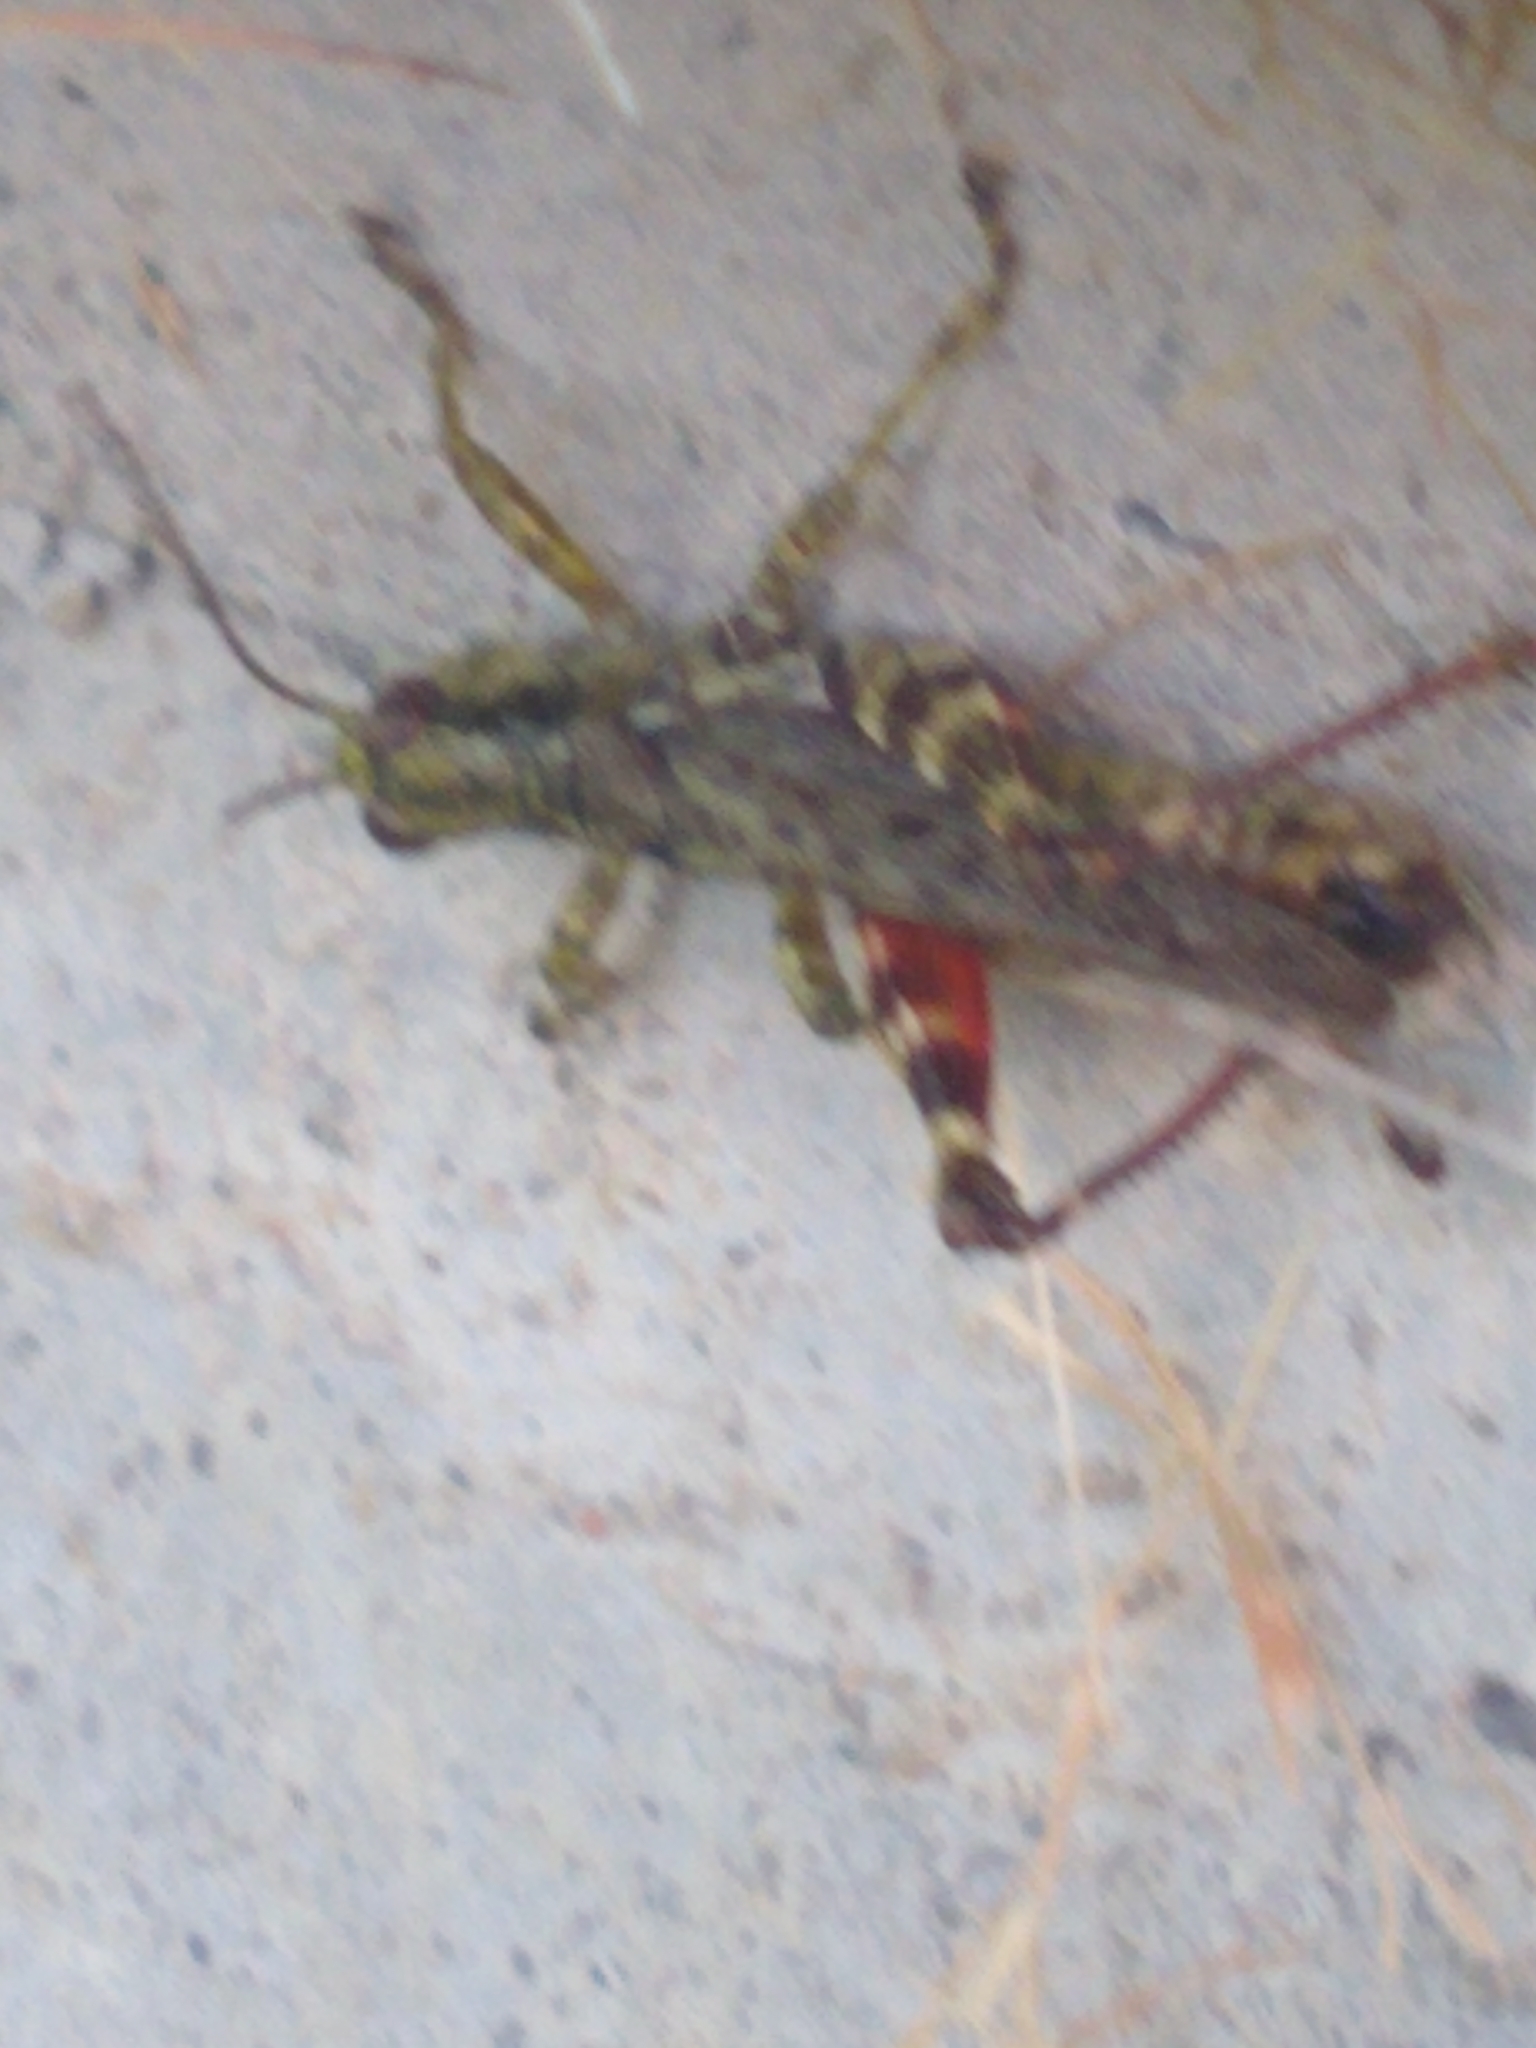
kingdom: Animalia
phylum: Arthropoda
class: Insecta
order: Orthoptera
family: Acrididae
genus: Melanoplus
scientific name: Melanoplus punctulatus
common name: Pine-tree spur-throat grasshopper
